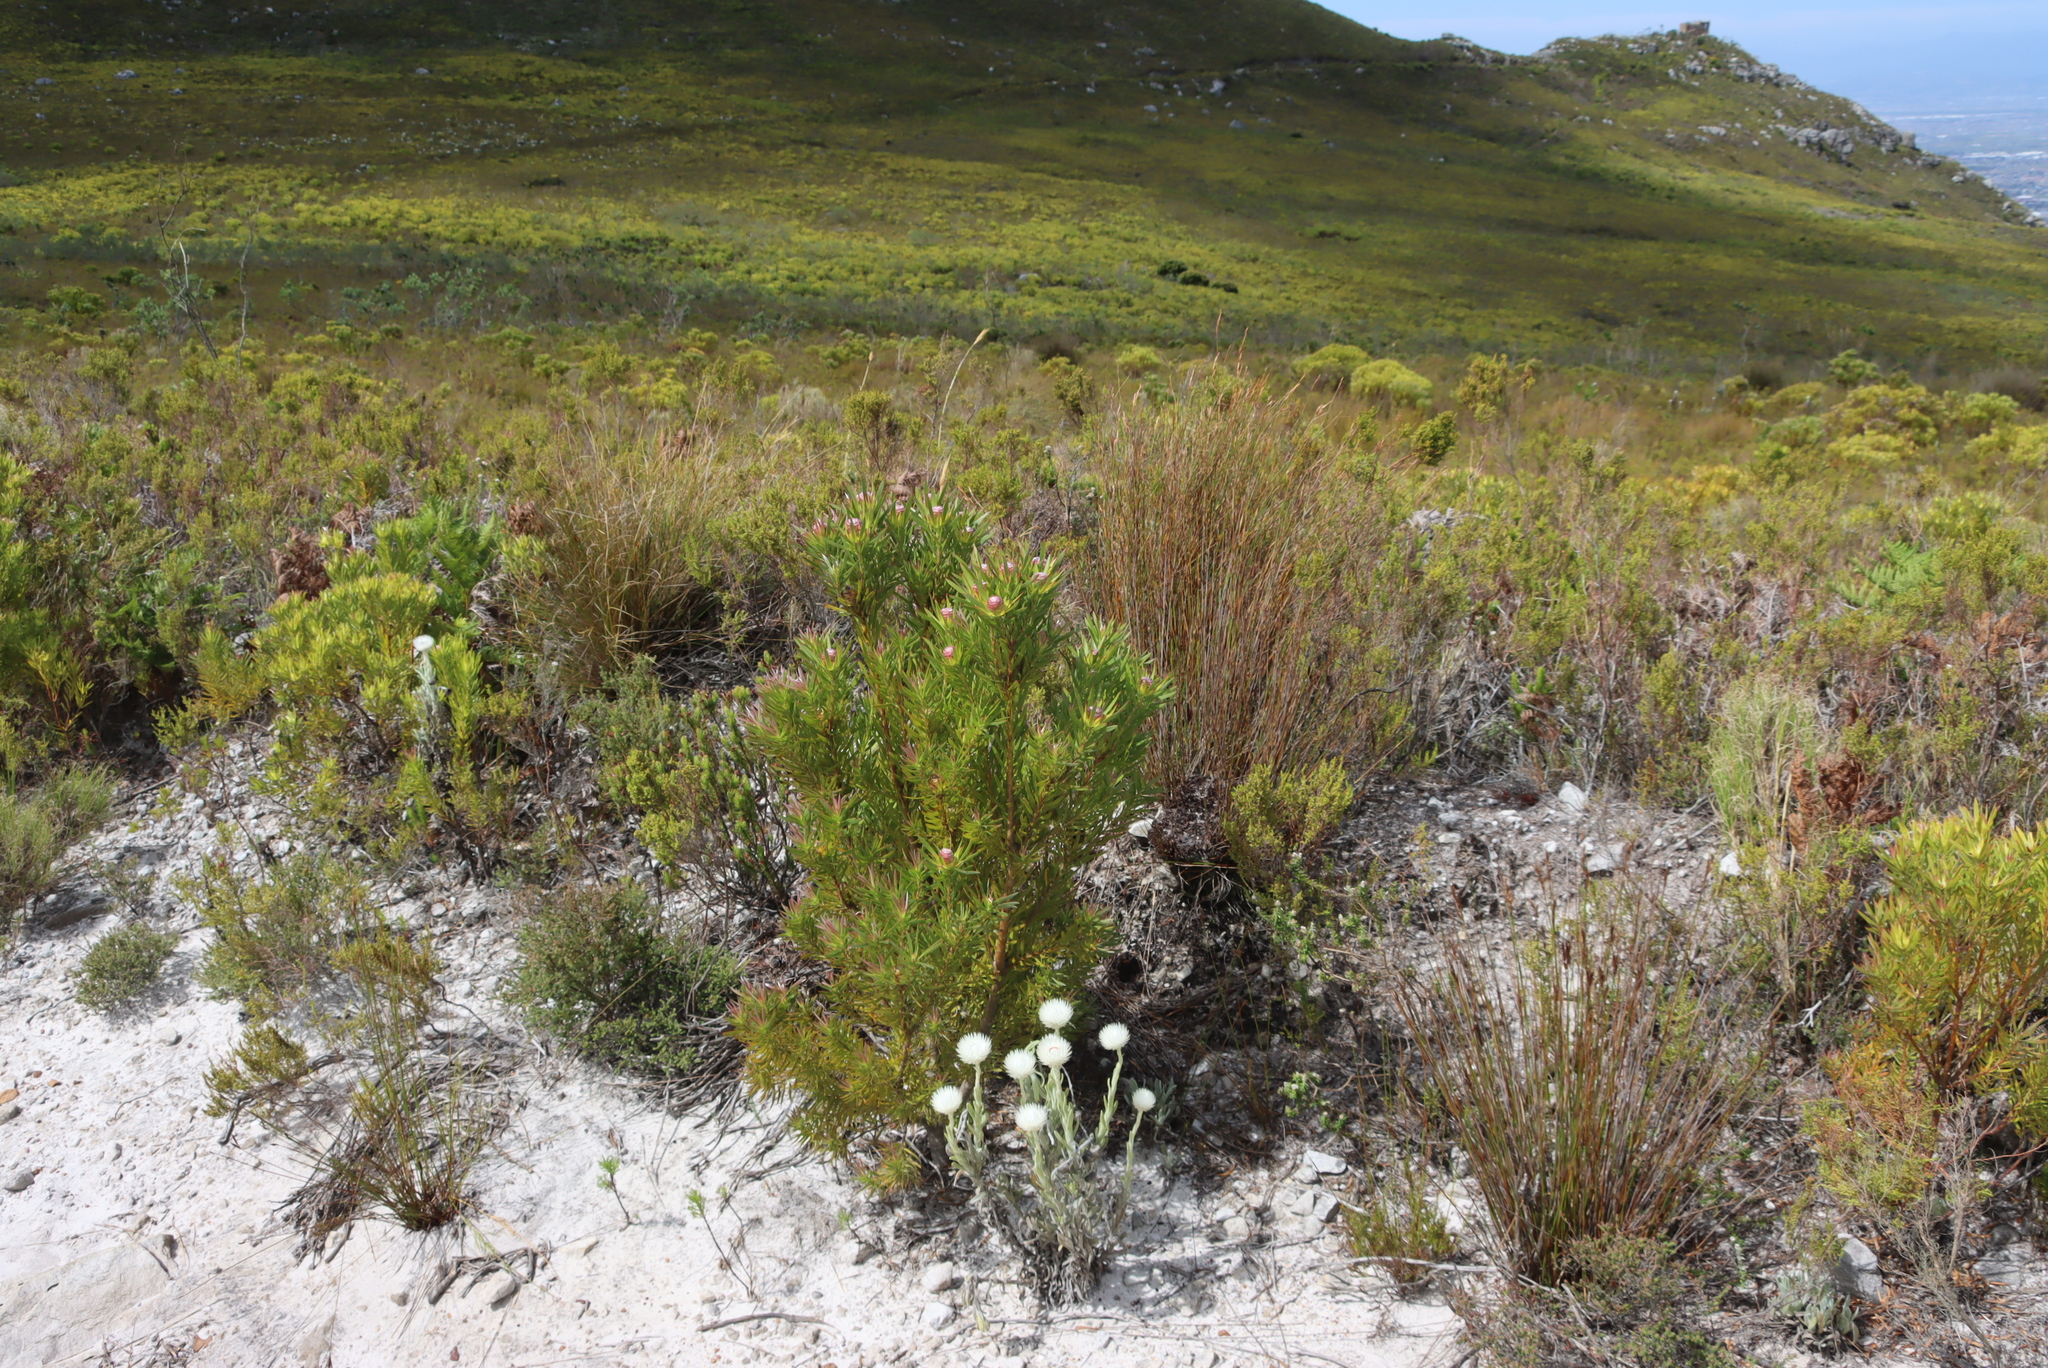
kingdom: Plantae
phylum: Tracheophyta
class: Magnoliopsida
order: Proteales
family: Proteaceae
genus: Leucadendron
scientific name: Leucadendron xanthoconus
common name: Sickle-leaf conebush
